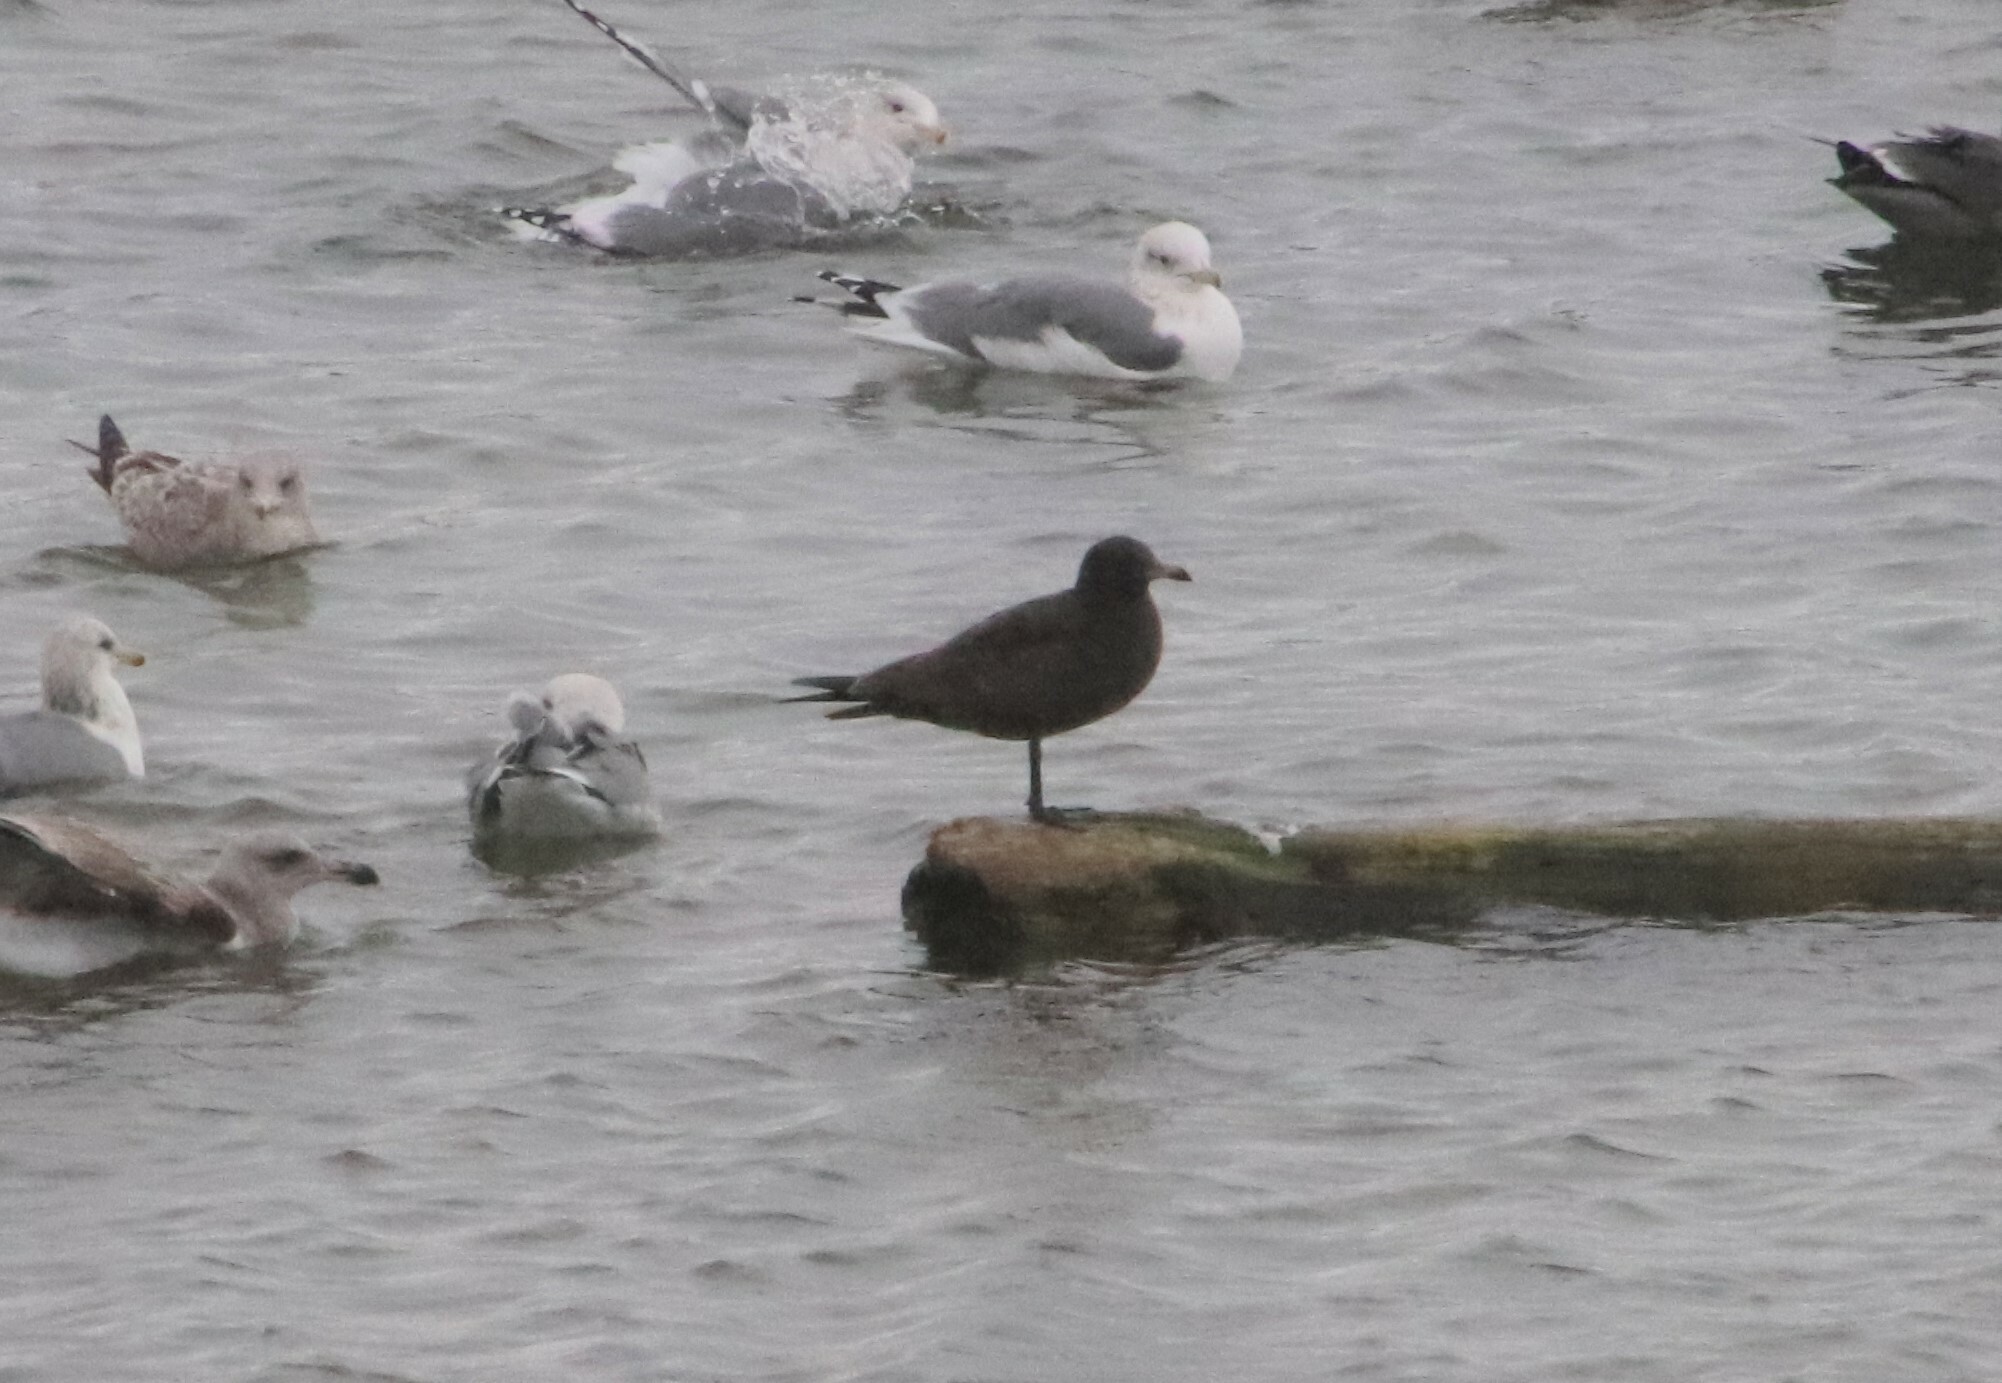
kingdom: Animalia
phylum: Chordata
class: Aves
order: Charadriiformes
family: Laridae
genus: Larus
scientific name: Larus heermanni
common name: Heermann's gull
